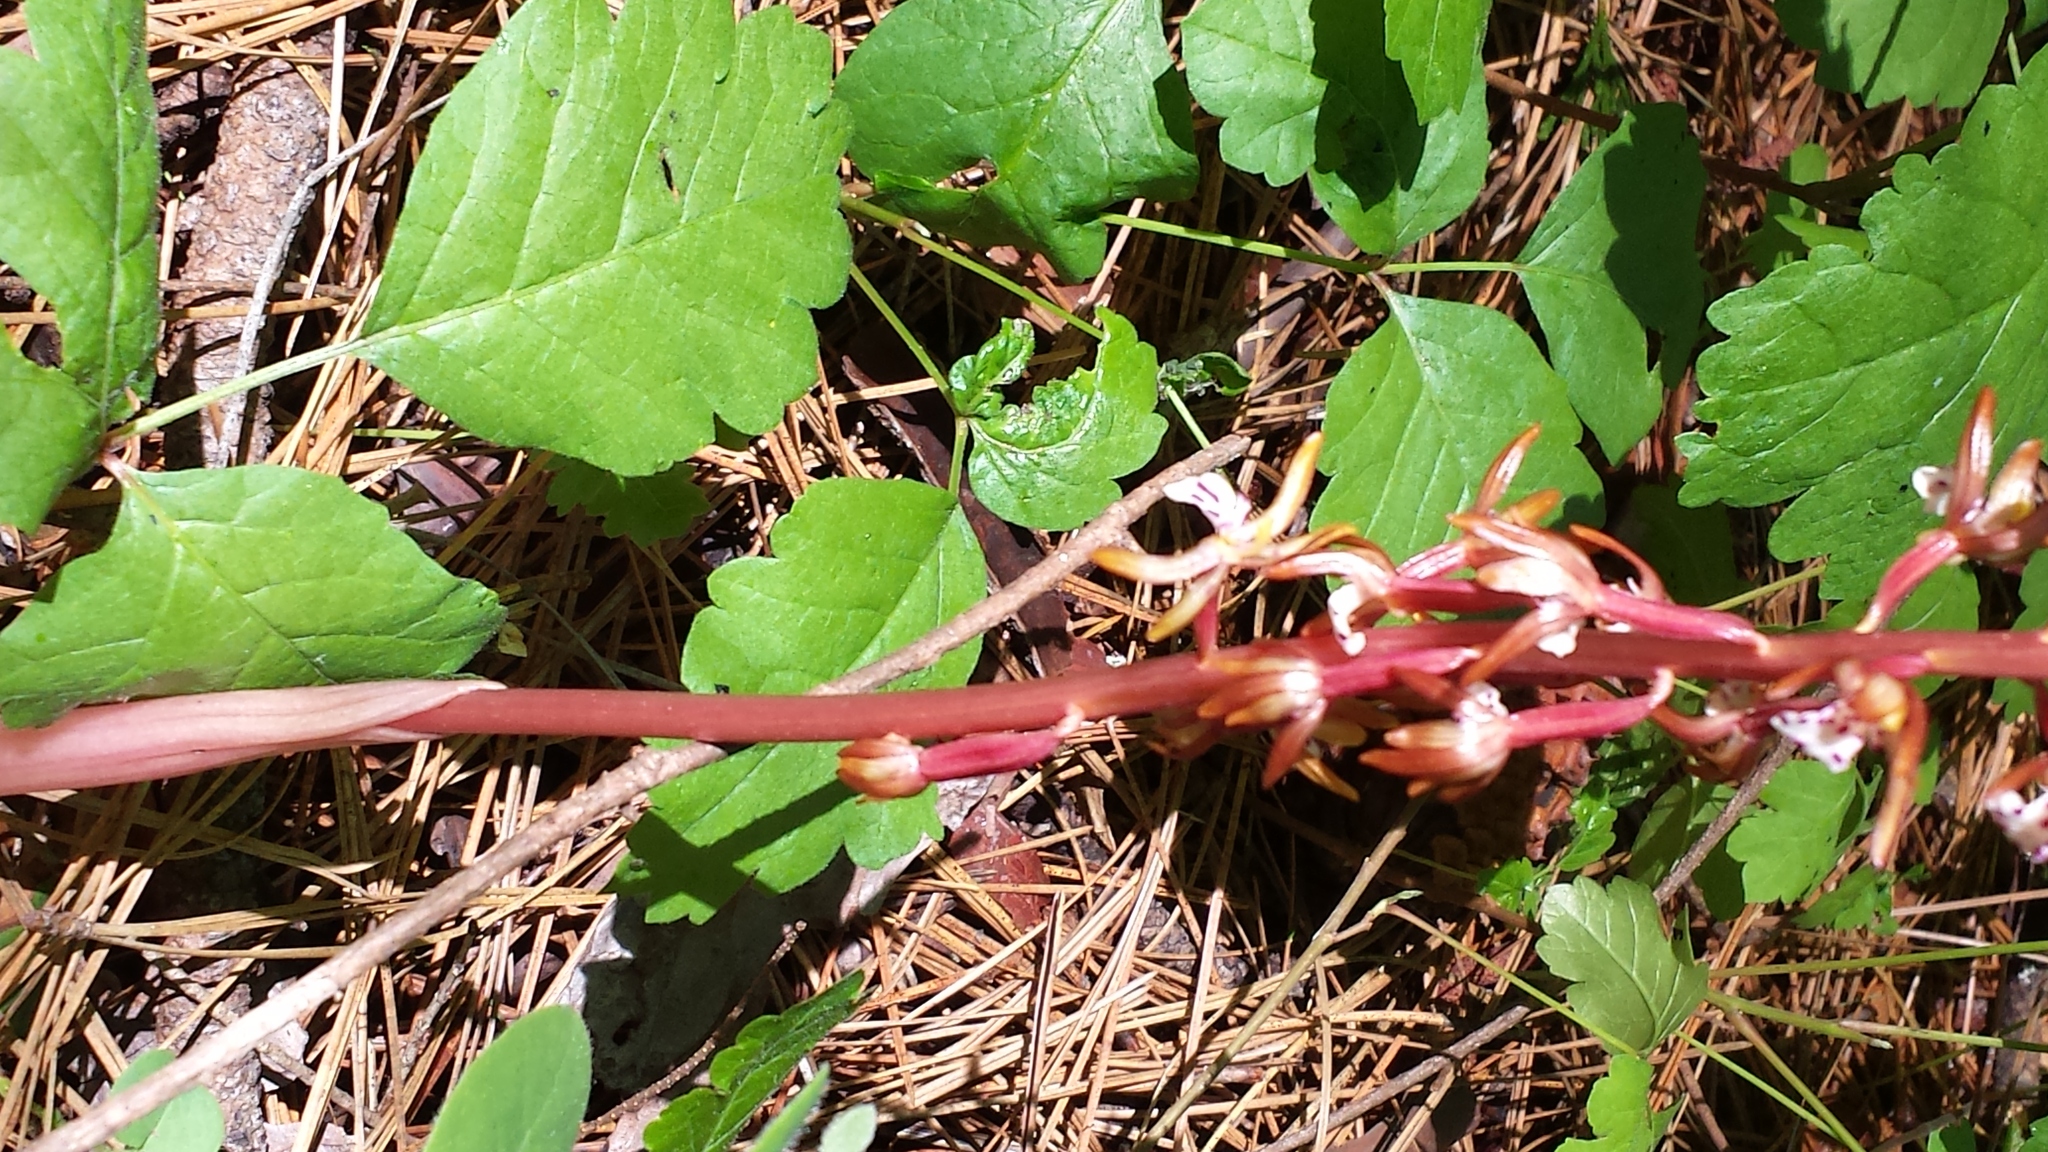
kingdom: Plantae
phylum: Tracheophyta
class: Liliopsida
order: Asparagales
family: Orchidaceae
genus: Corallorhiza
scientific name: Corallorhiza maculata
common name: Spotted coralroot
